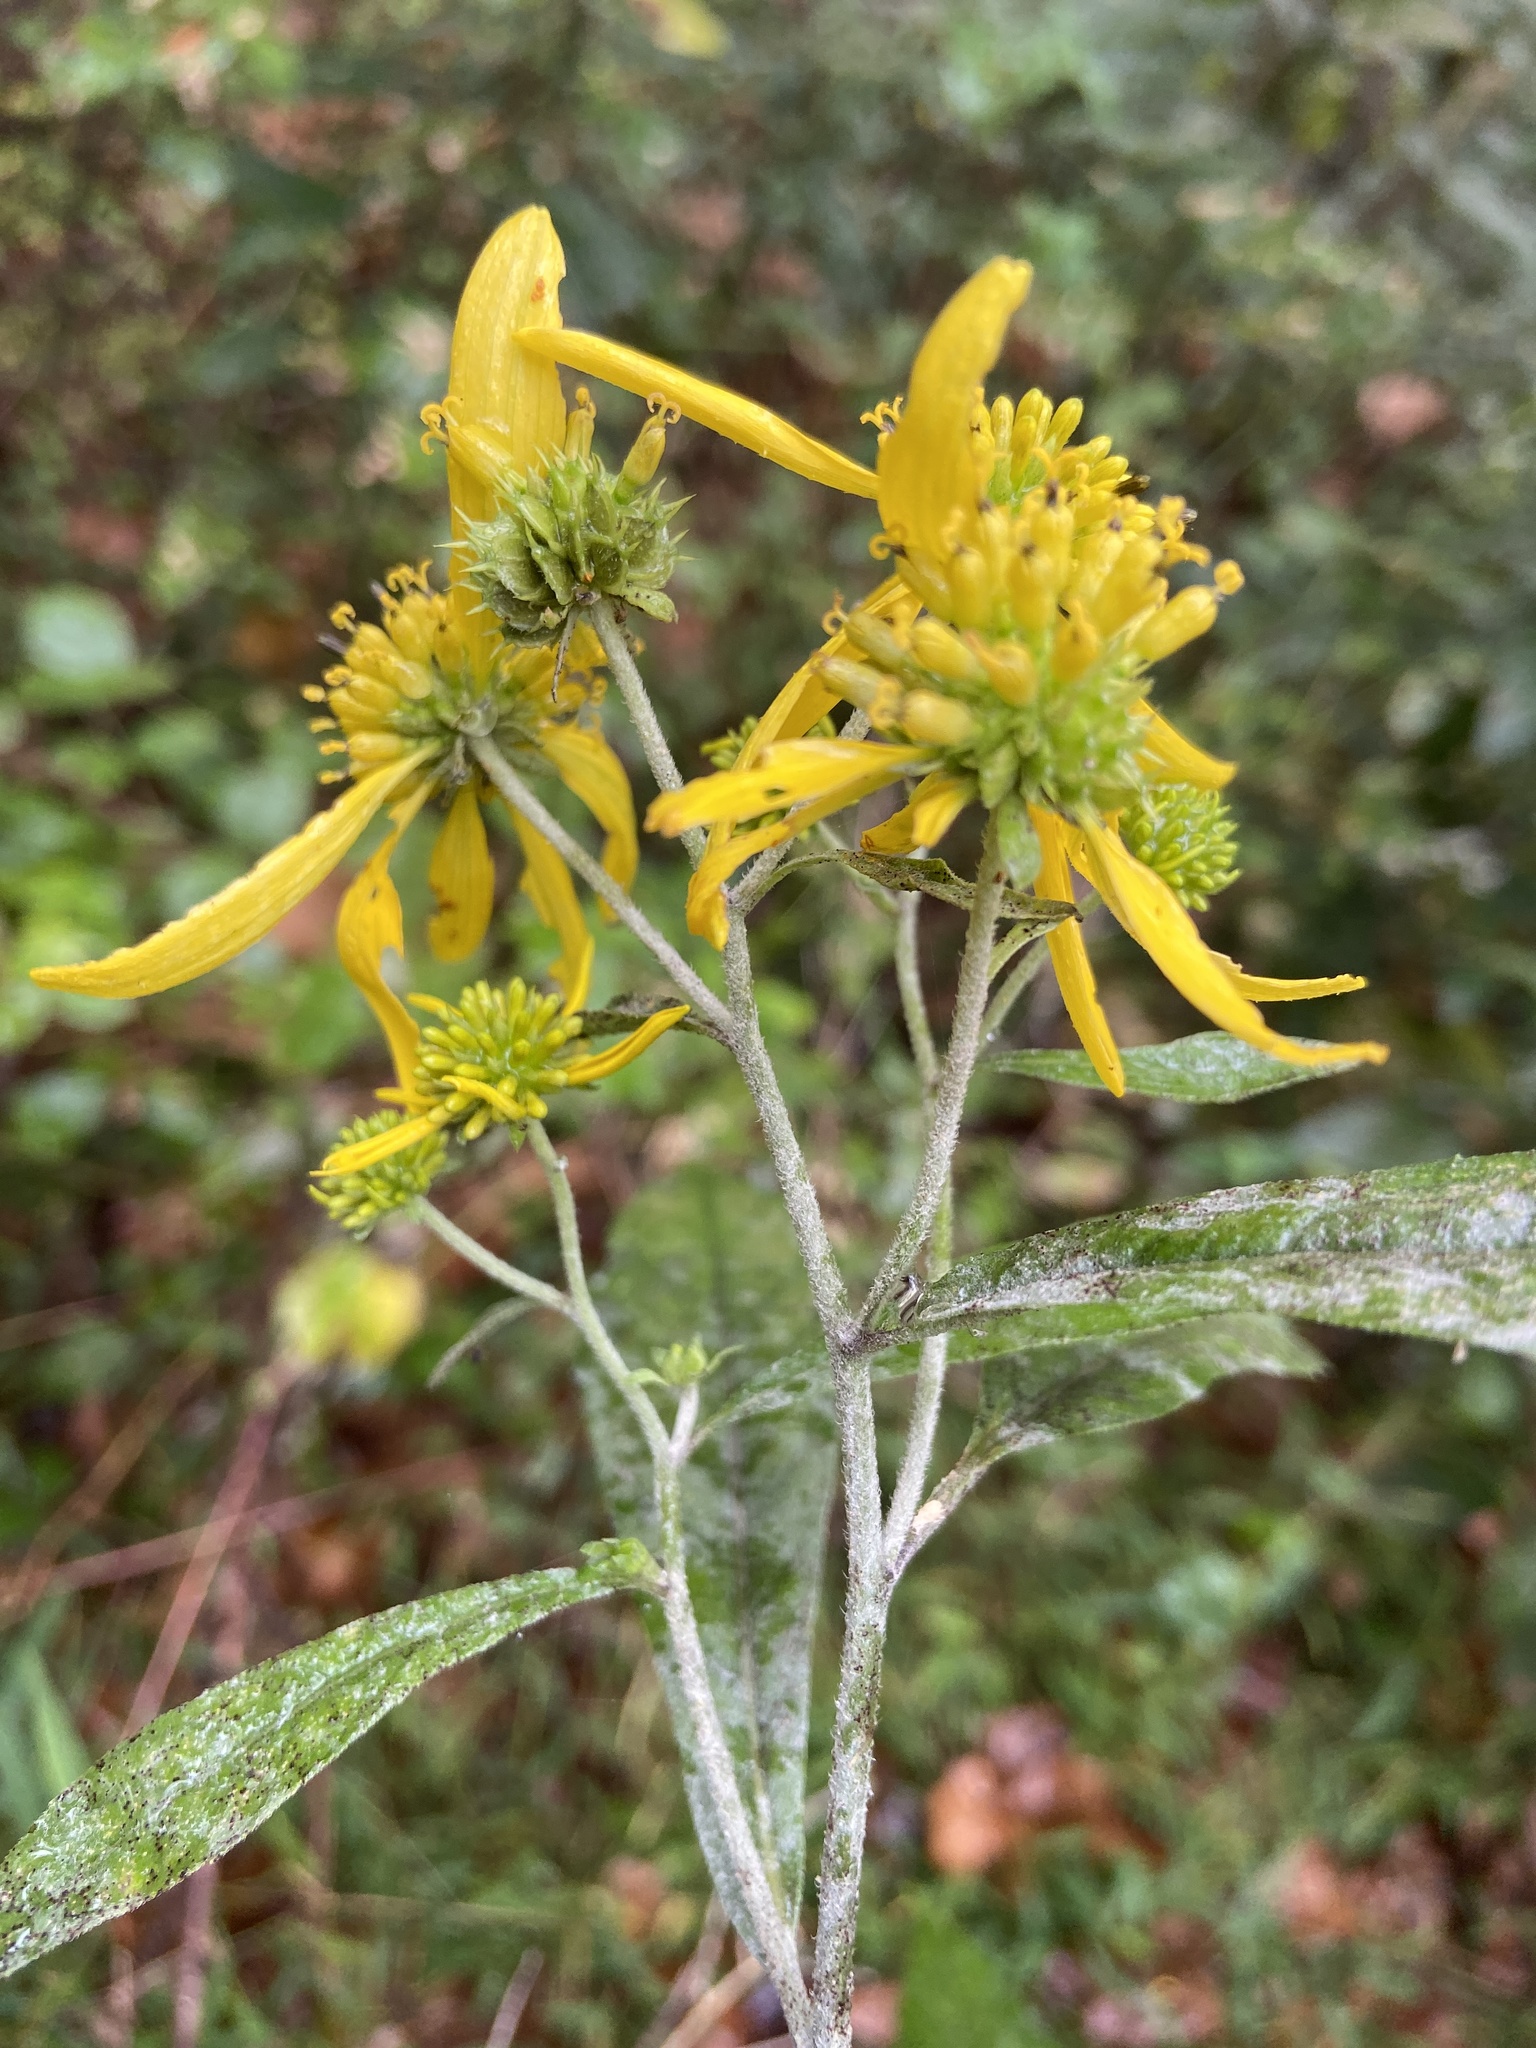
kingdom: Plantae
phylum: Tracheophyta
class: Magnoliopsida
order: Asterales
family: Asteraceae
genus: Verbesina
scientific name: Verbesina alternifolia
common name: Wingstem
